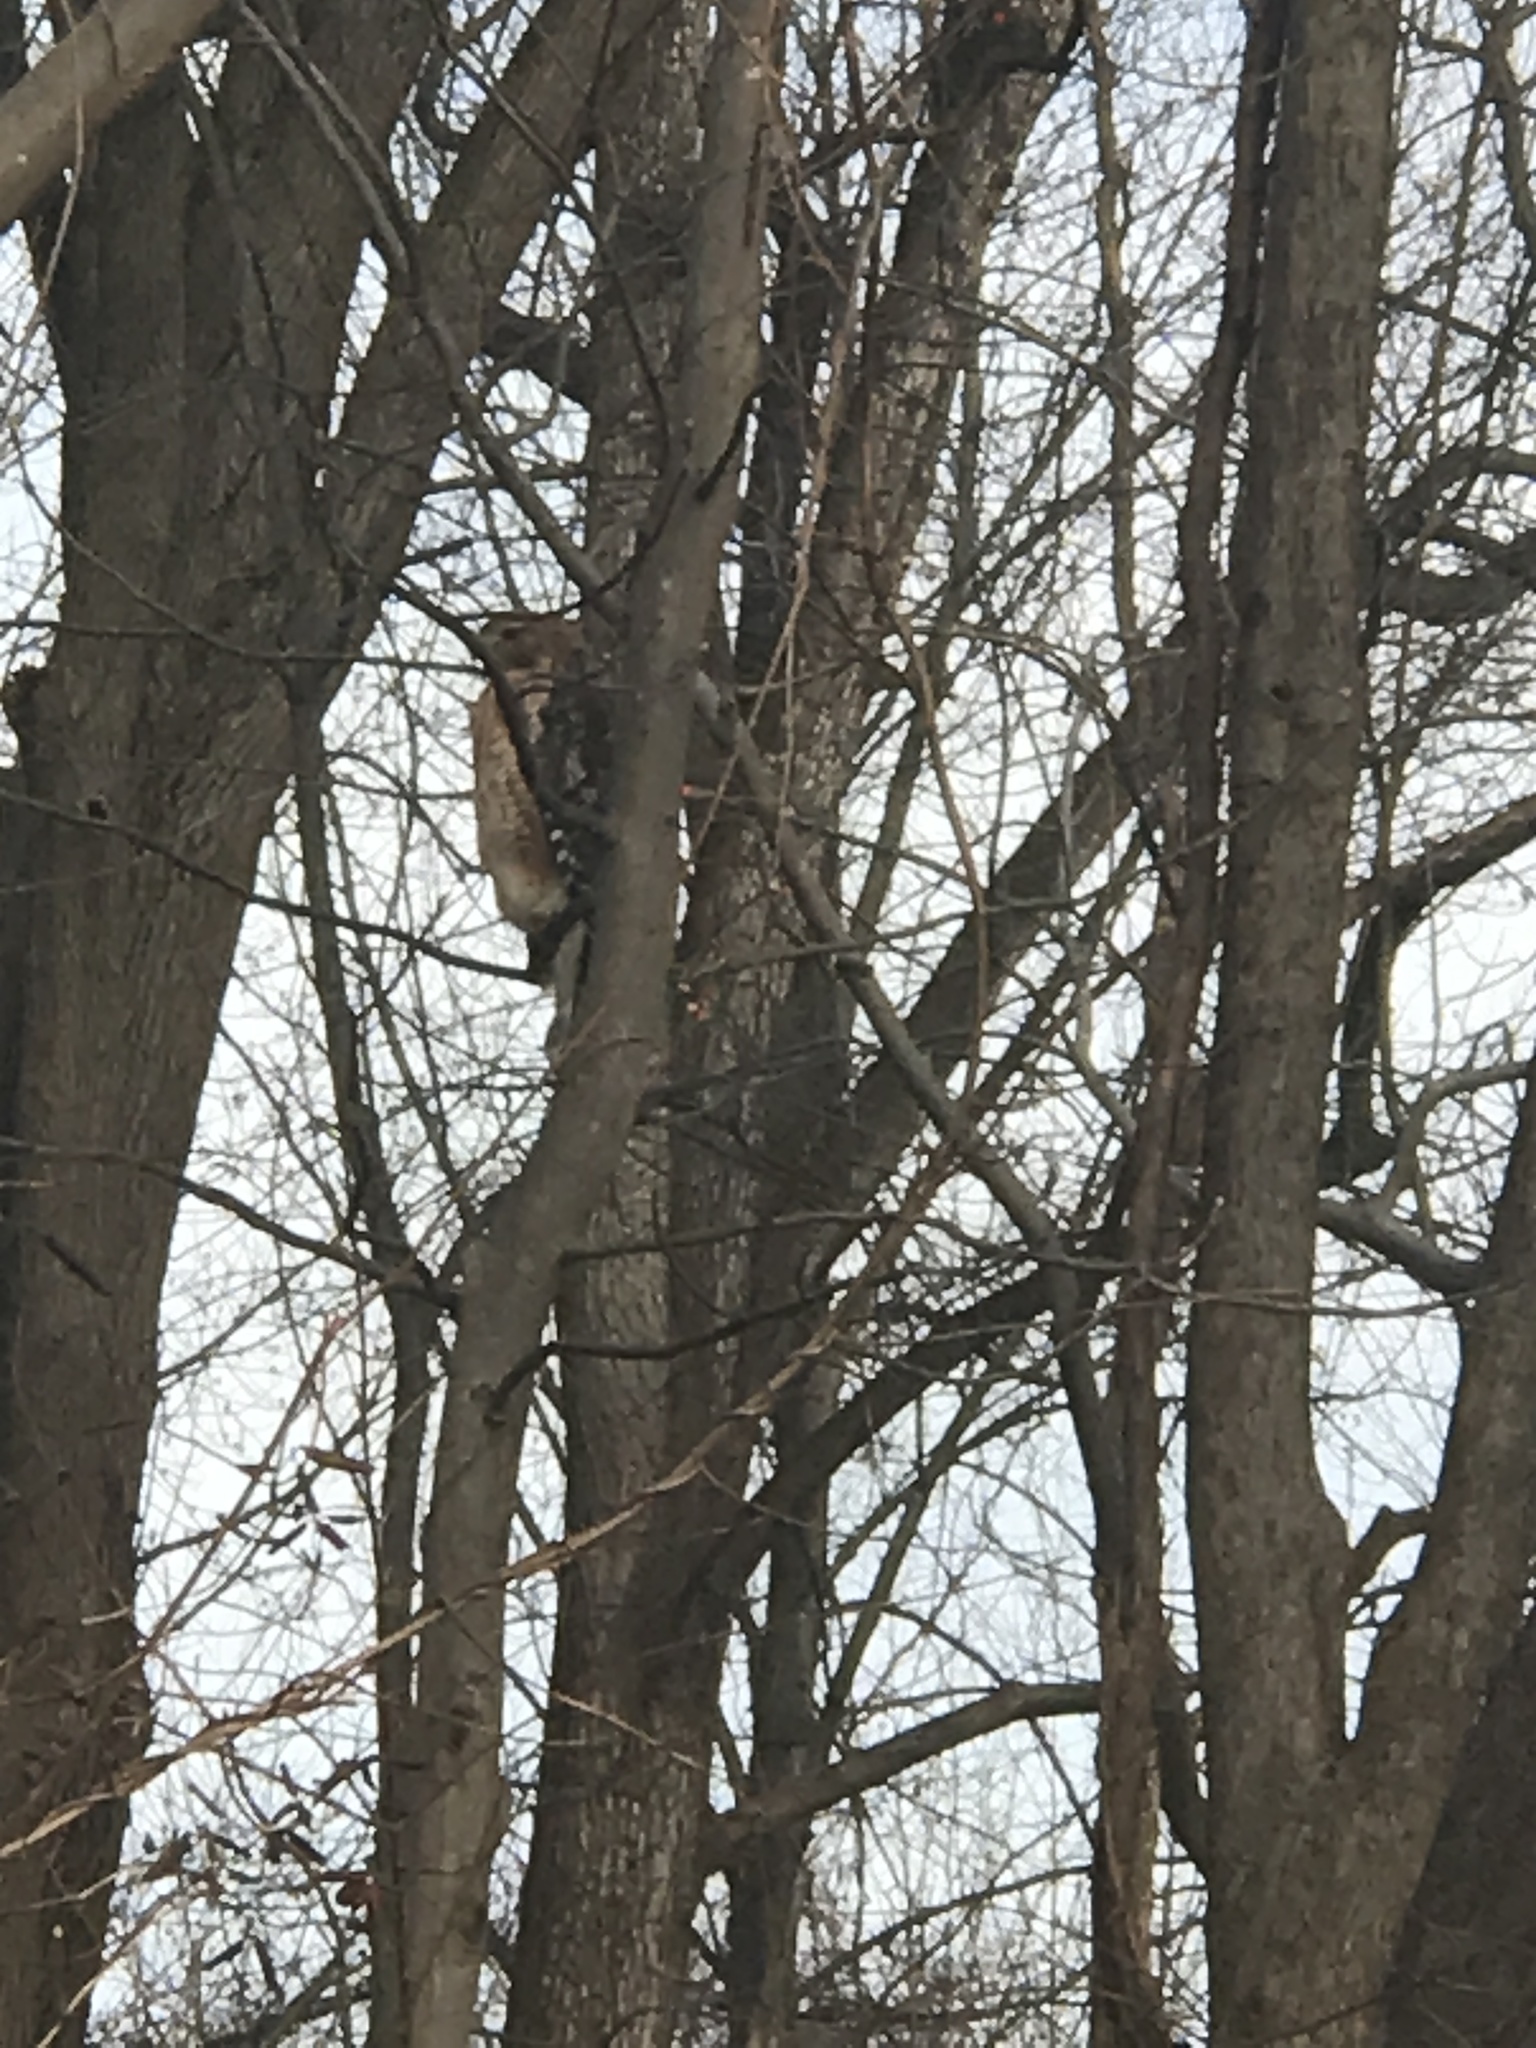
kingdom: Animalia
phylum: Chordata
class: Aves
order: Accipitriformes
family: Accipitridae
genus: Accipiter
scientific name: Accipiter cooperii
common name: Cooper's hawk
